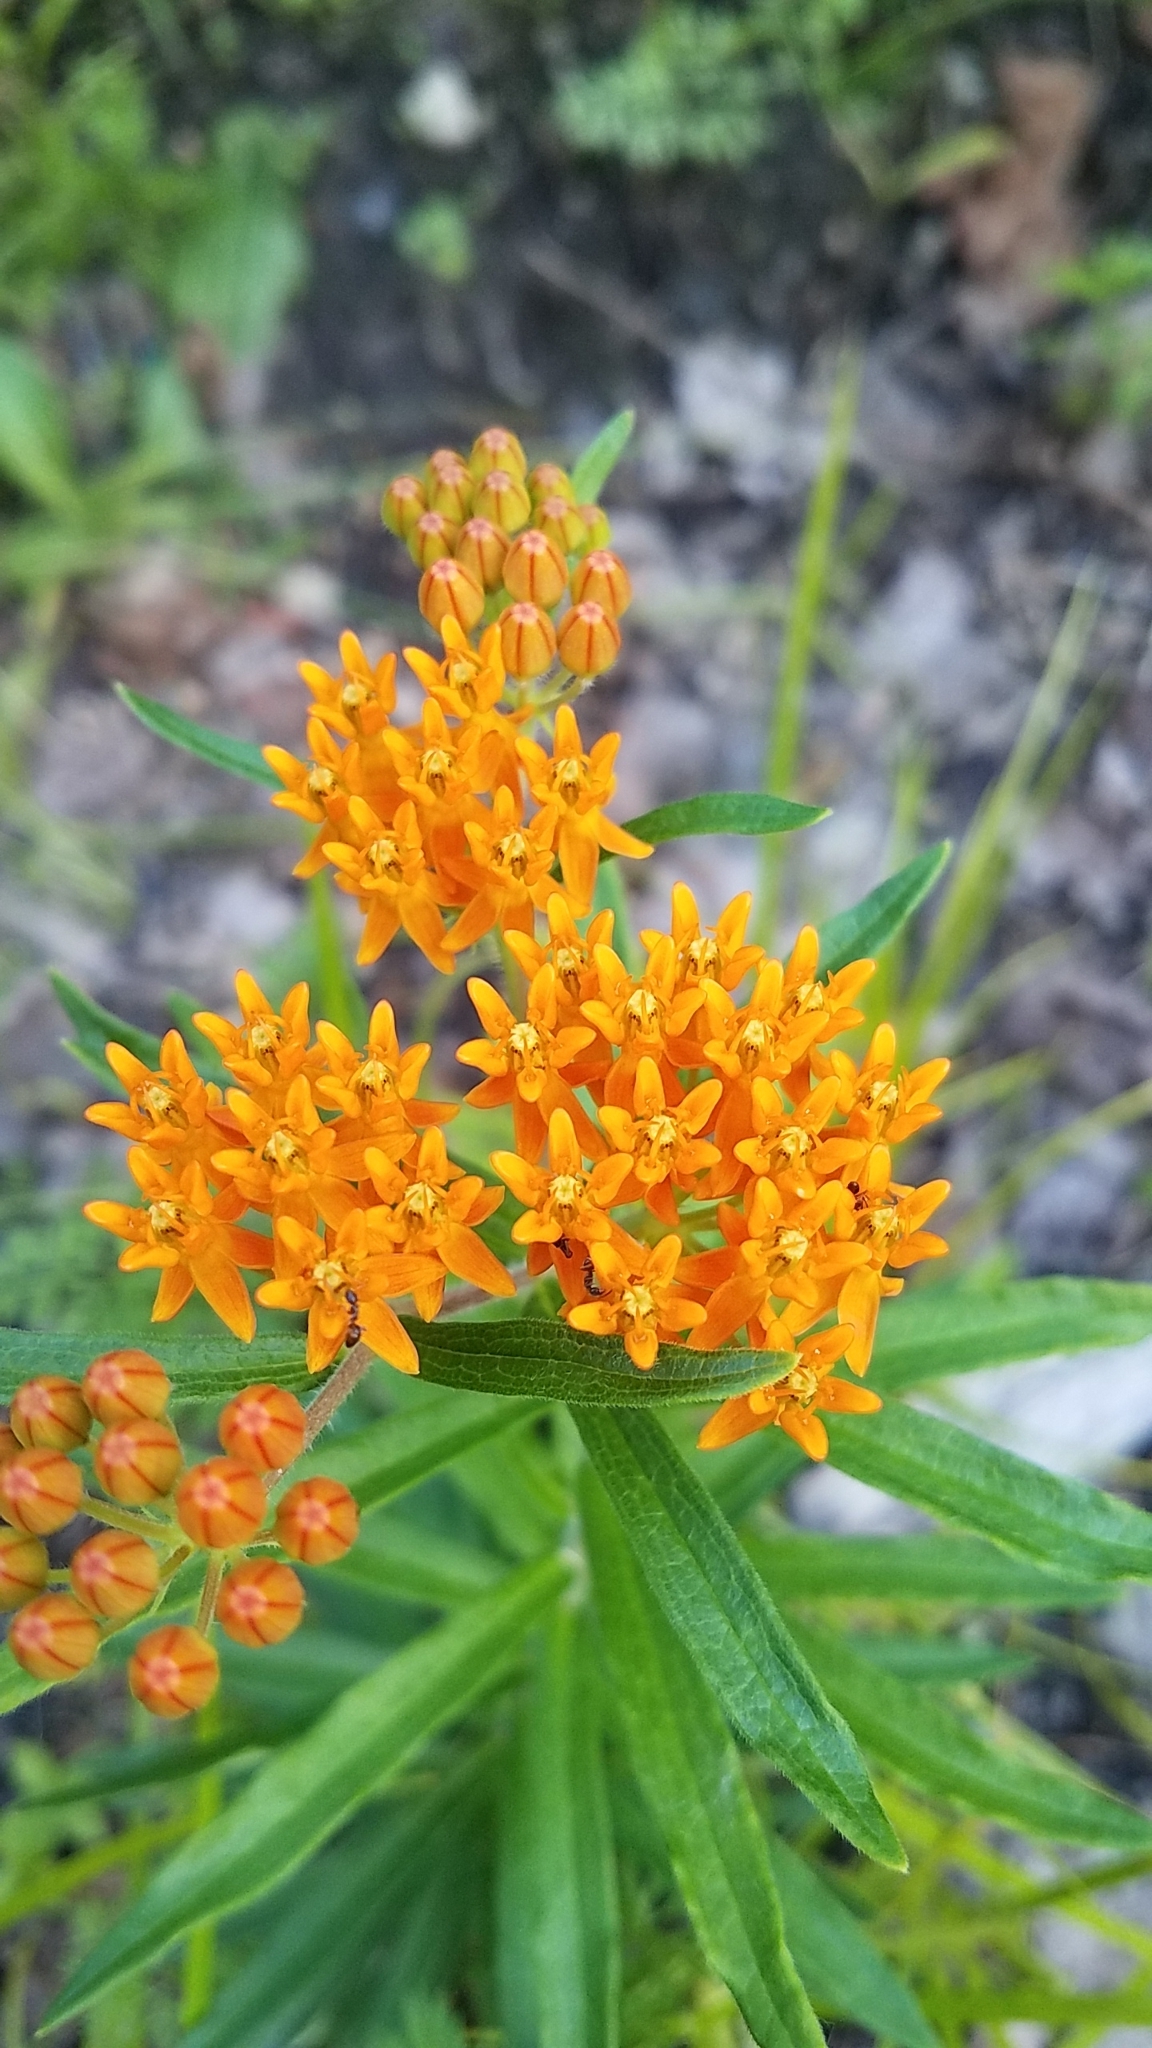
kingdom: Plantae
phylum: Tracheophyta
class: Magnoliopsida
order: Gentianales
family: Apocynaceae
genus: Asclepias
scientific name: Asclepias tuberosa
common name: Butterfly milkweed
